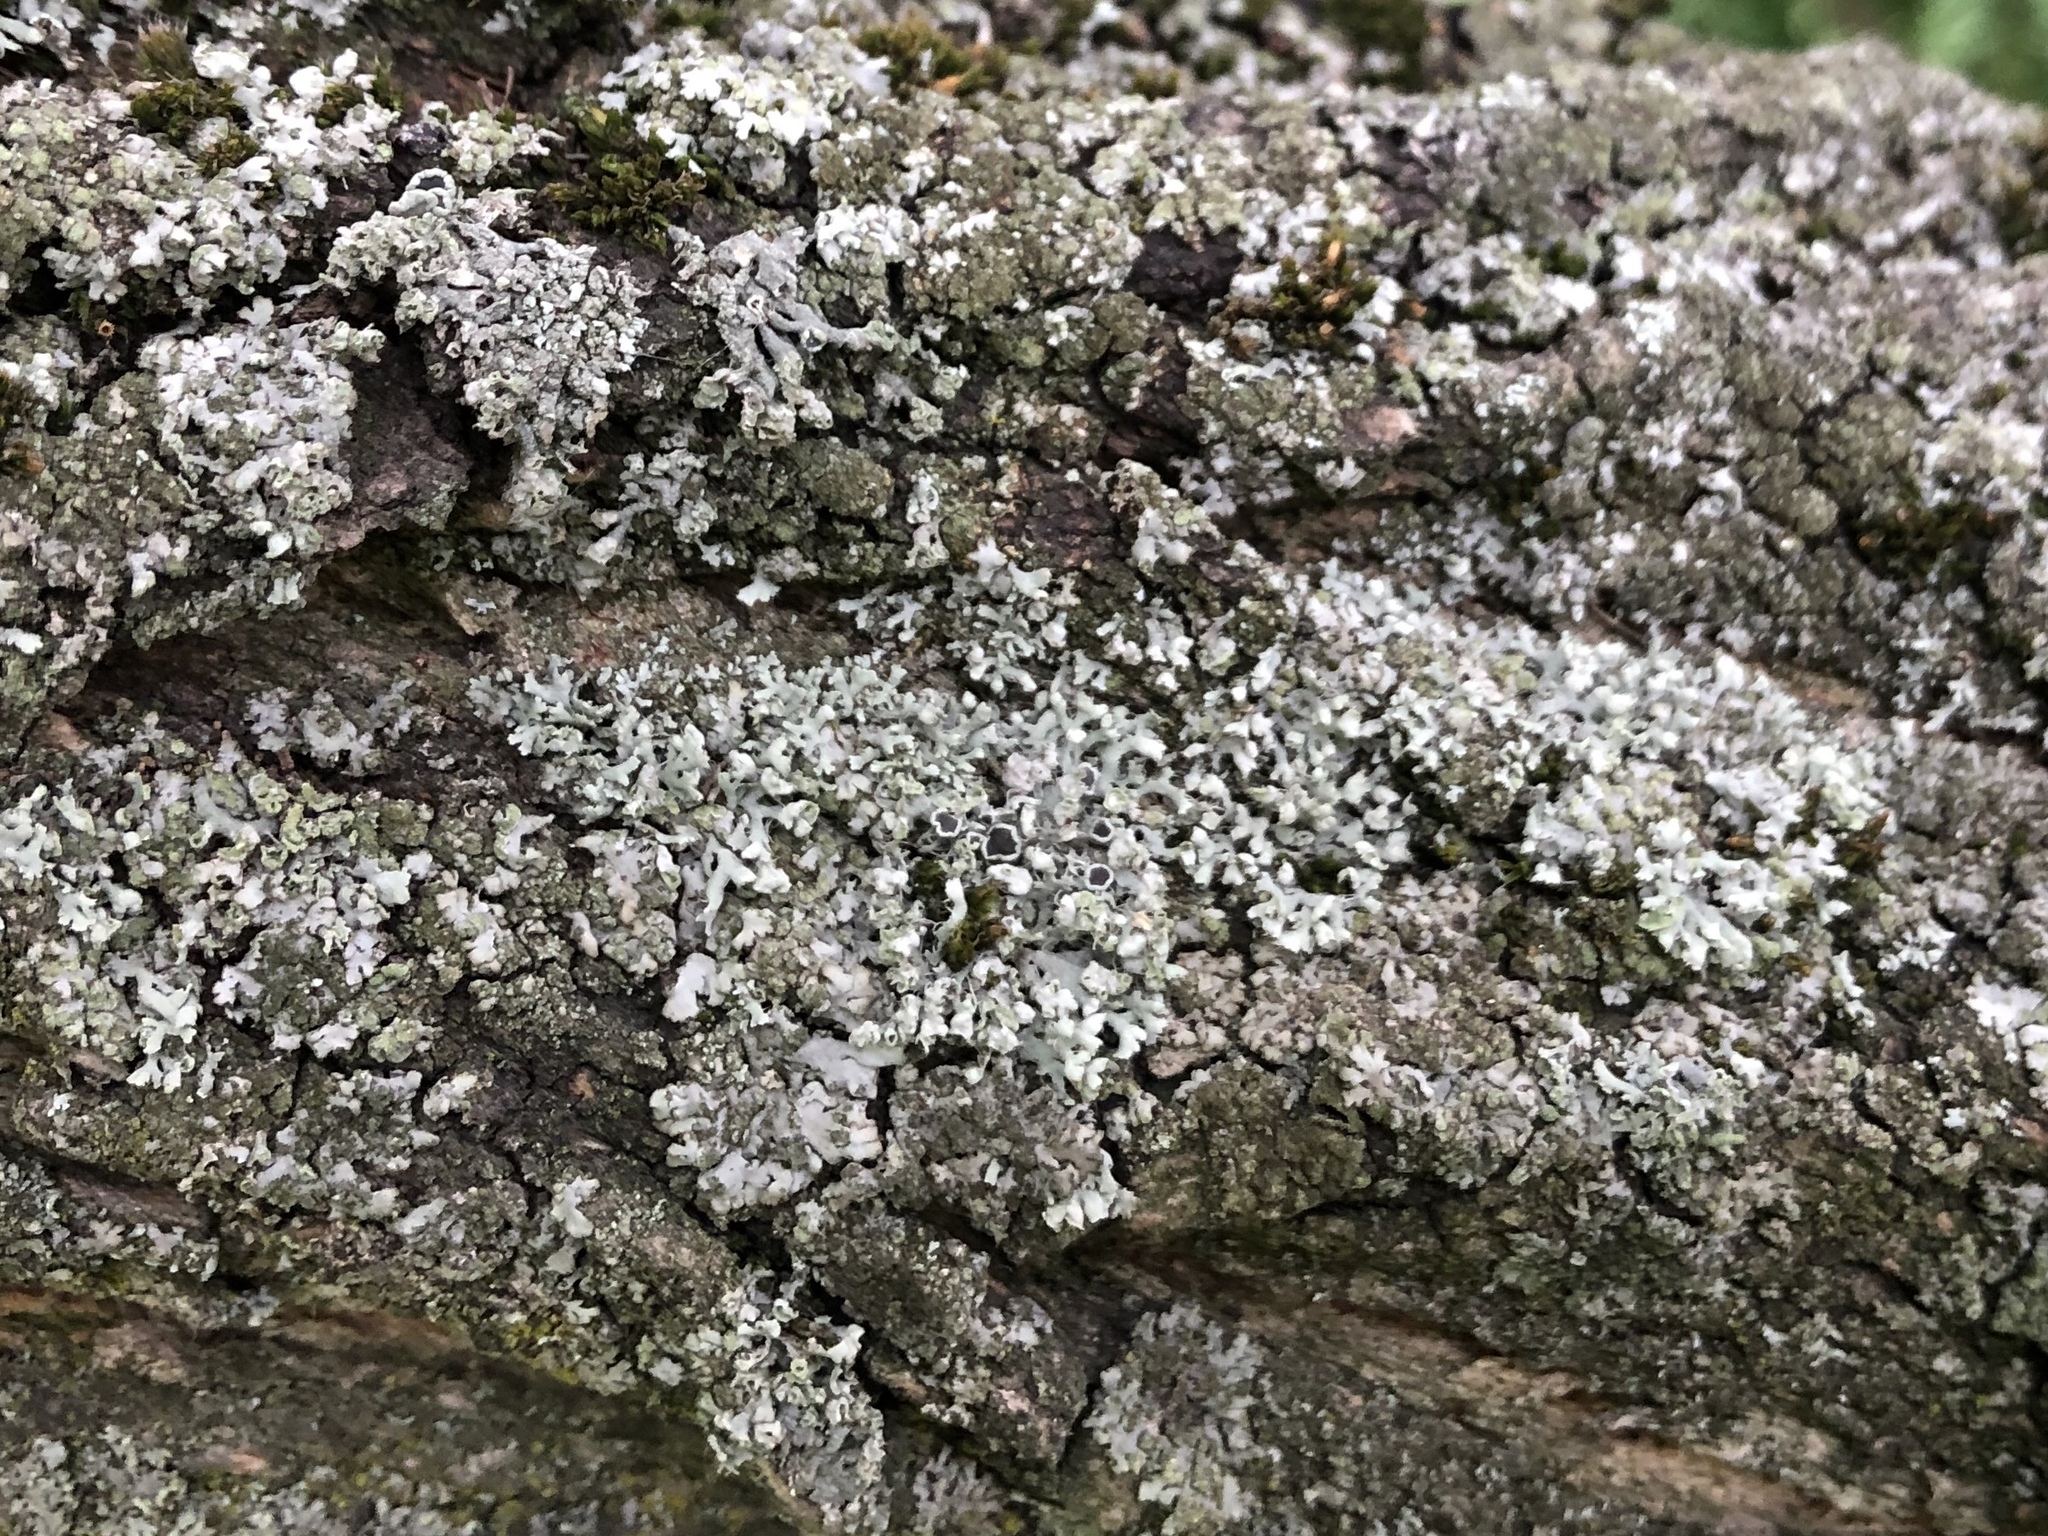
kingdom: Fungi
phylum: Ascomycota
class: Lecanoromycetes
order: Caliciales
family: Physciaceae
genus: Physcia
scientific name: Physcia adscendens
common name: Hooded rosette lichen
